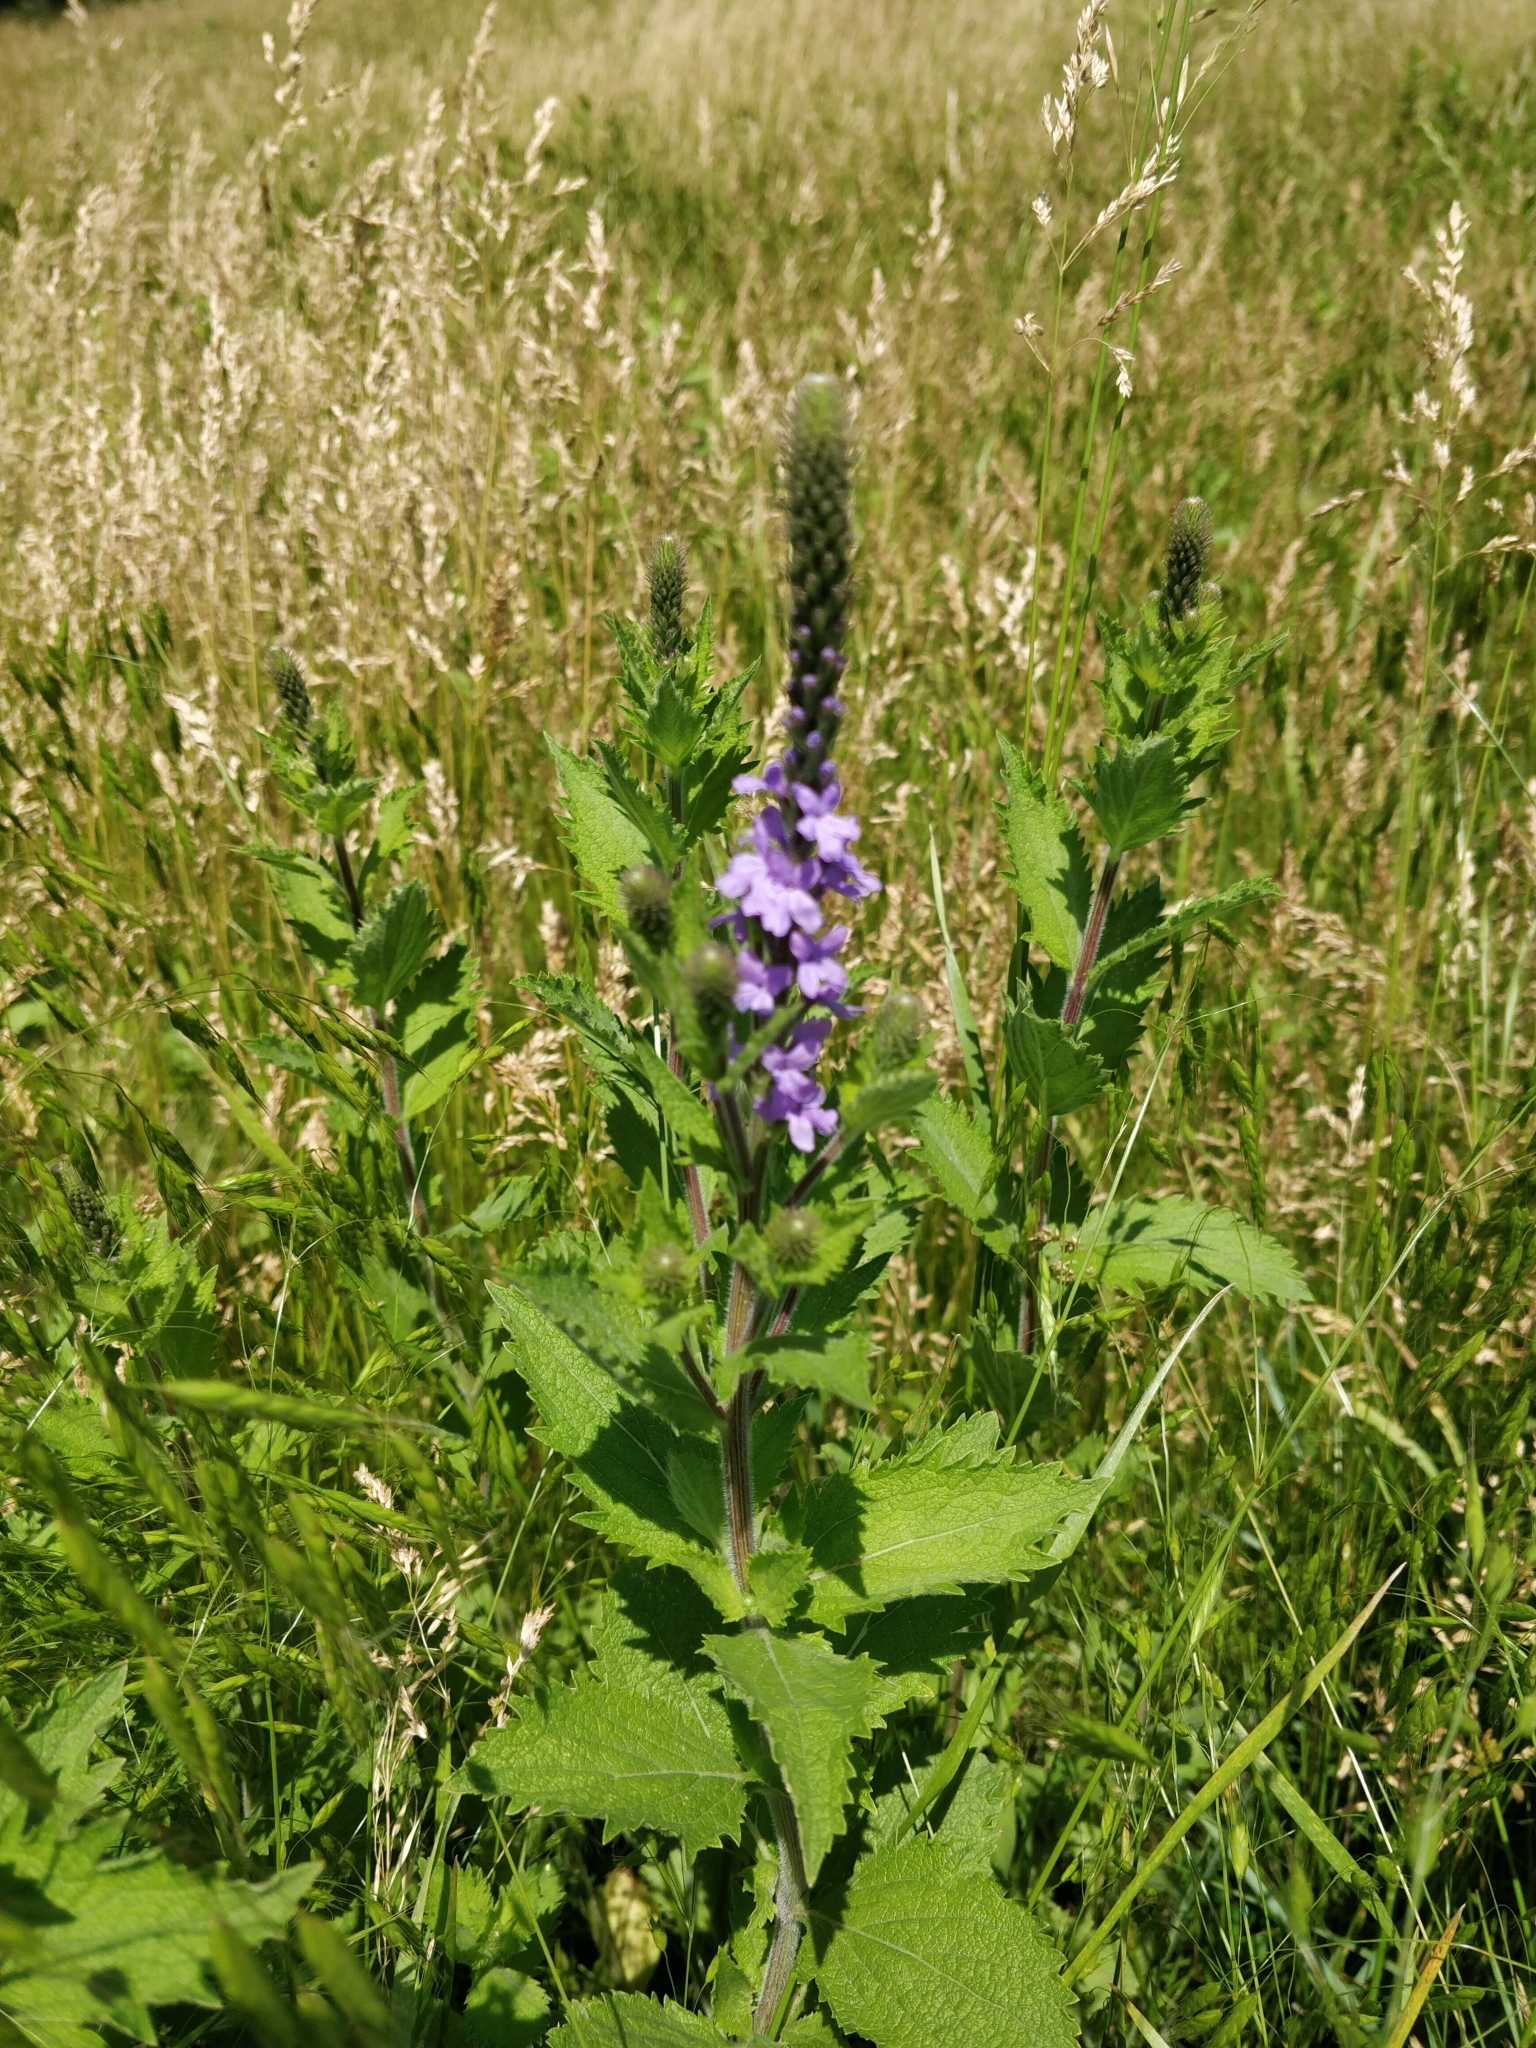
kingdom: Plantae
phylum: Tracheophyta
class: Magnoliopsida
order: Lamiales
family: Verbenaceae
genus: Verbena
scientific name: Verbena stricta
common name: Hoary vervain
